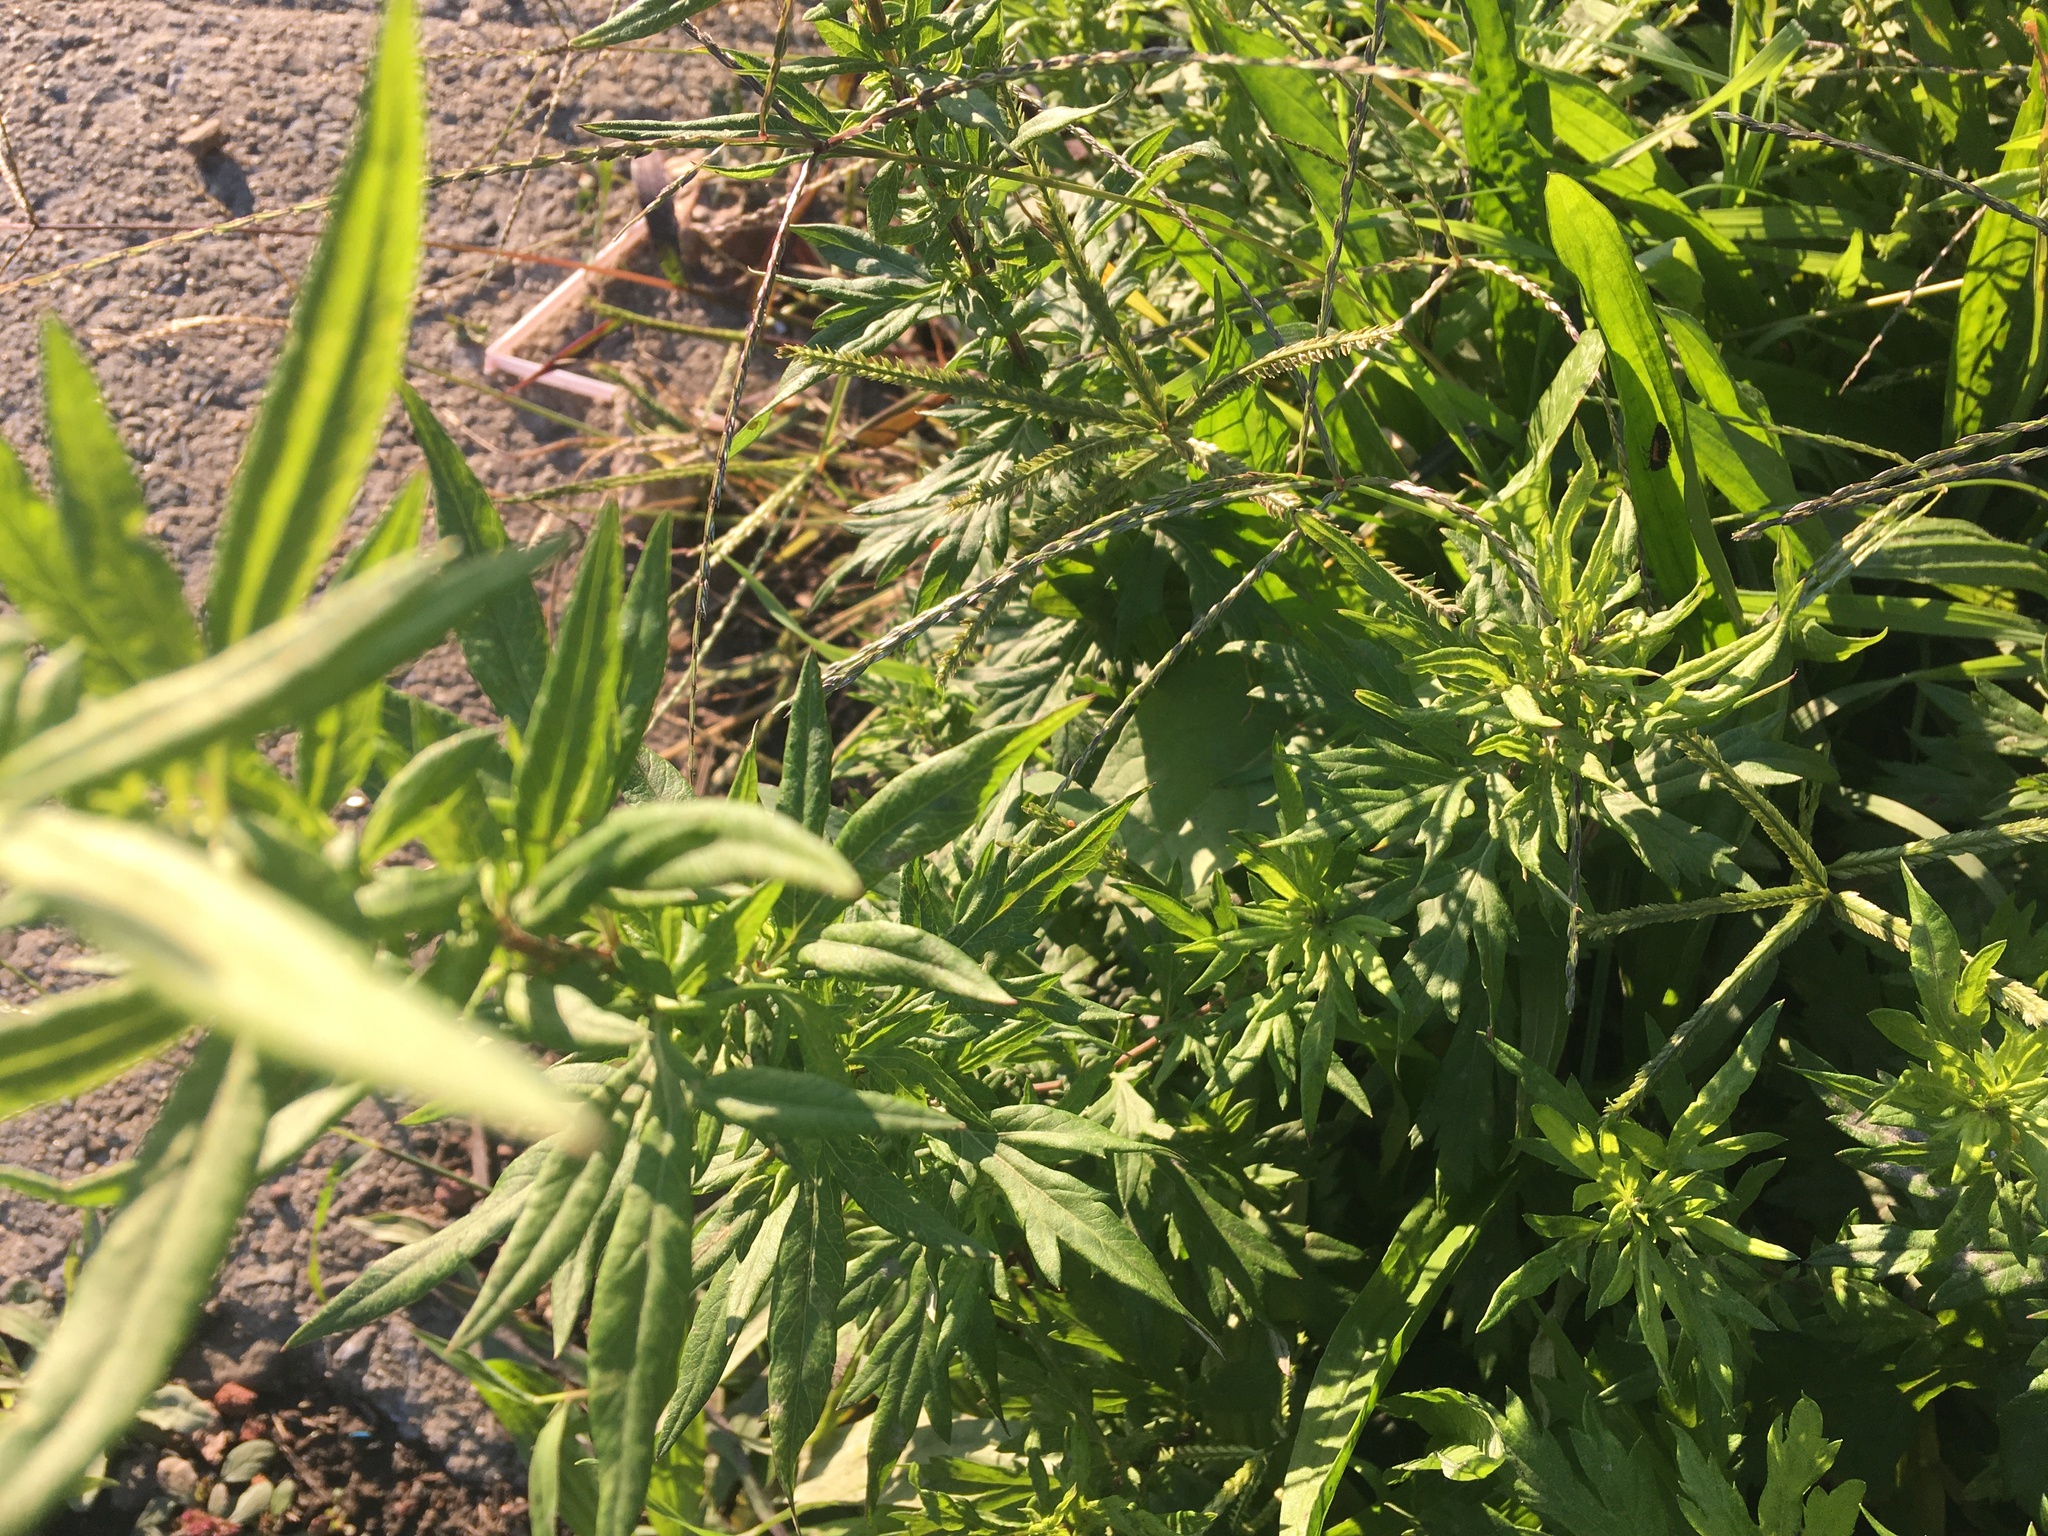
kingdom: Plantae
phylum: Tracheophyta
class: Magnoliopsida
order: Asterales
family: Asteraceae
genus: Artemisia
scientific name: Artemisia vulgaris
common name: Mugwort
